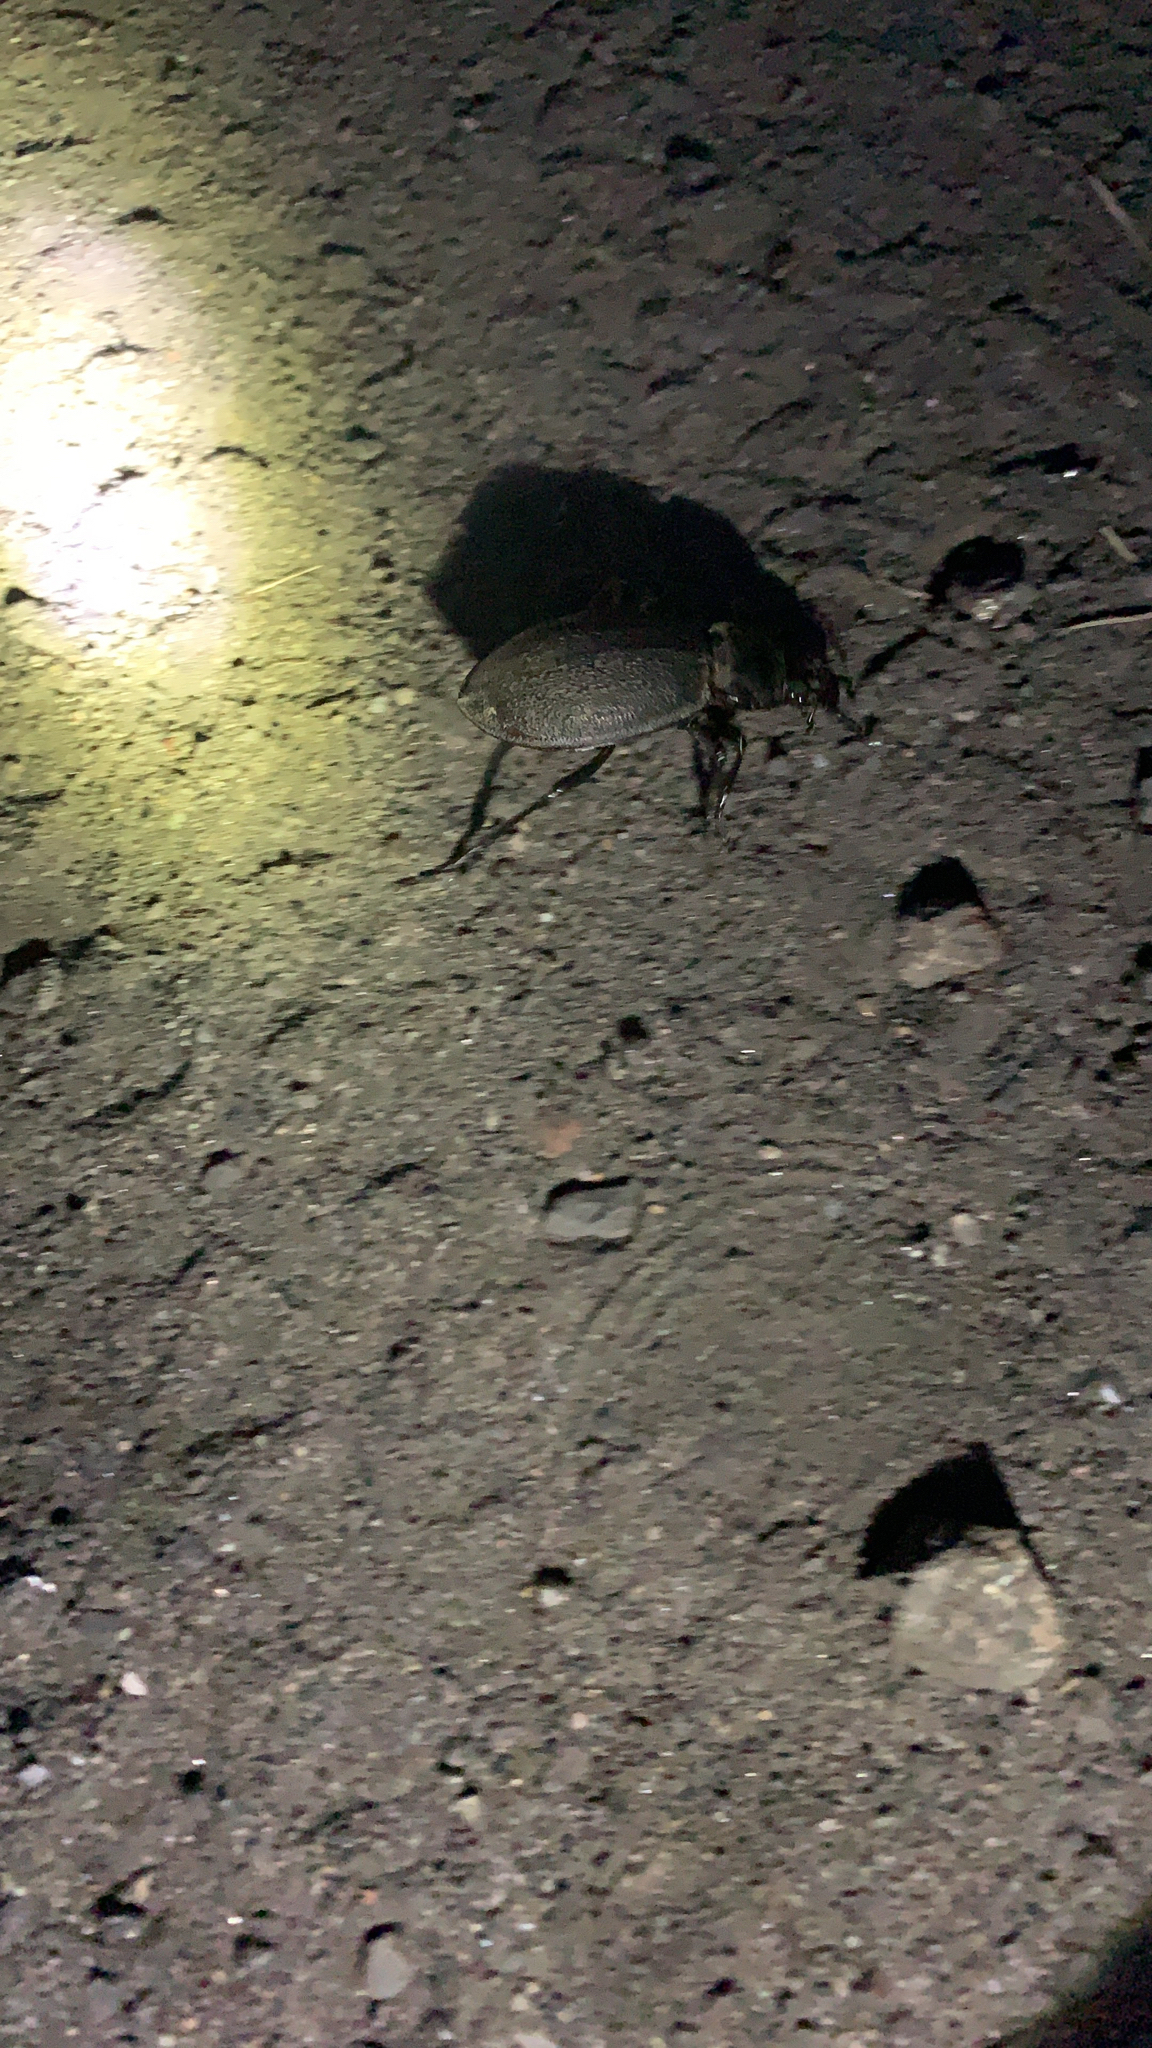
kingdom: Animalia
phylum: Arthropoda
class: Insecta
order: Coleoptera
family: Carabidae
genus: Carabus
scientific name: Carabus coriaceus
